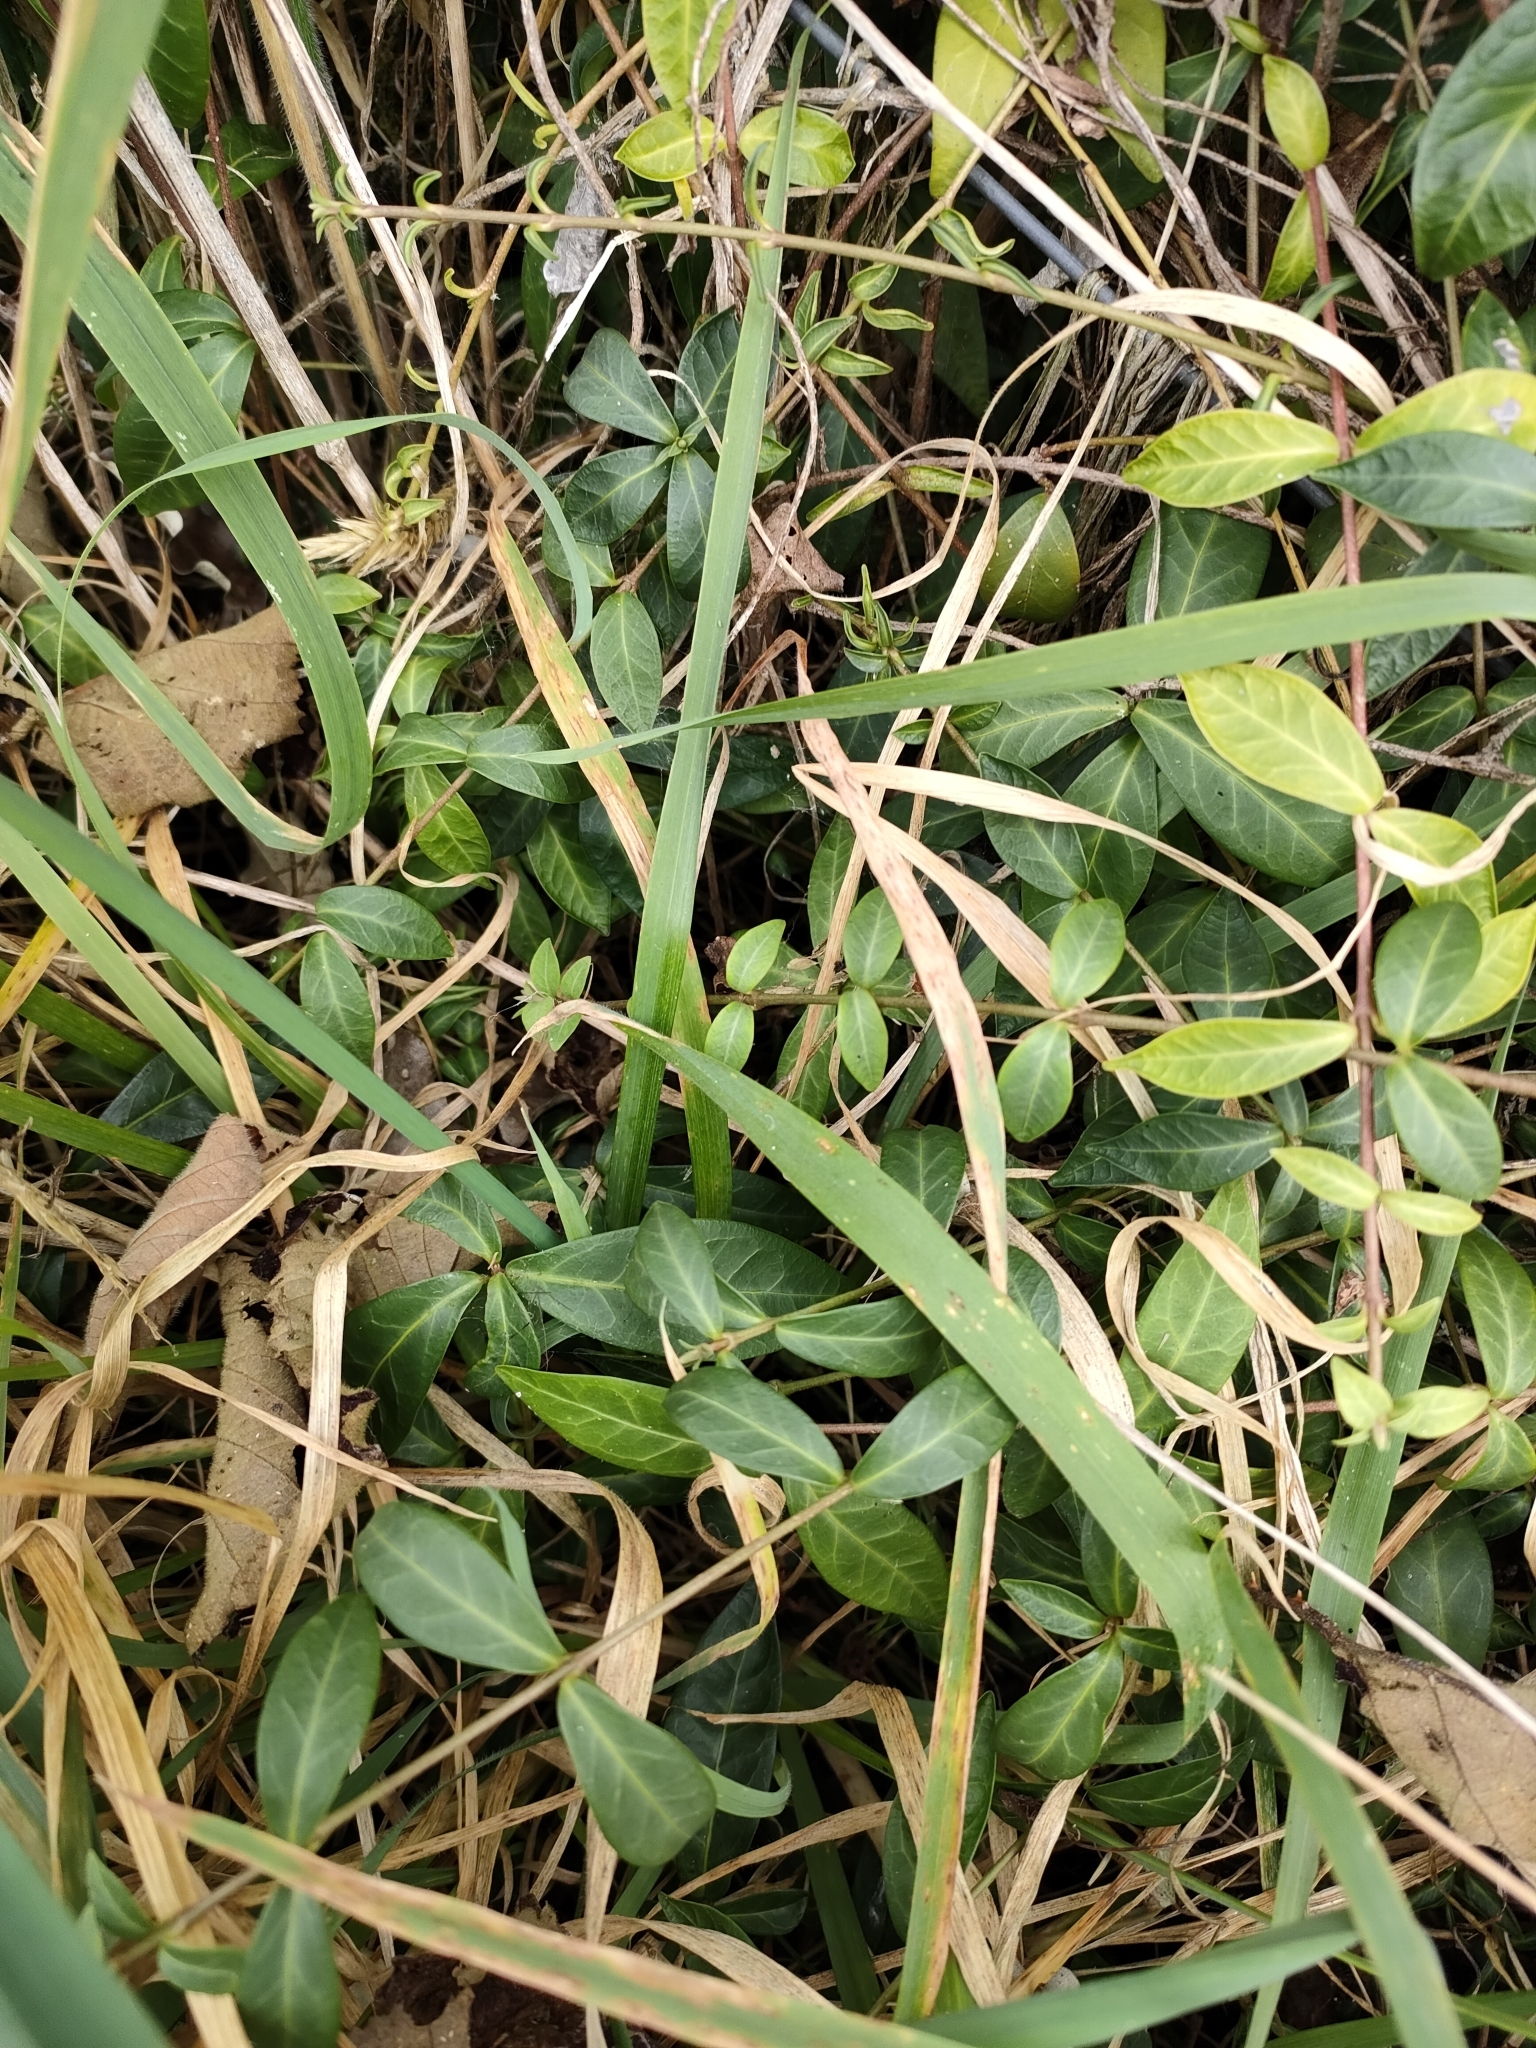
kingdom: Plantae
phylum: Tracheophyta
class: Magnoliopsida
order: Gentianales
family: Apocynaceae
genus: Vinca
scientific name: Vinca major
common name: Greater periwinkle
